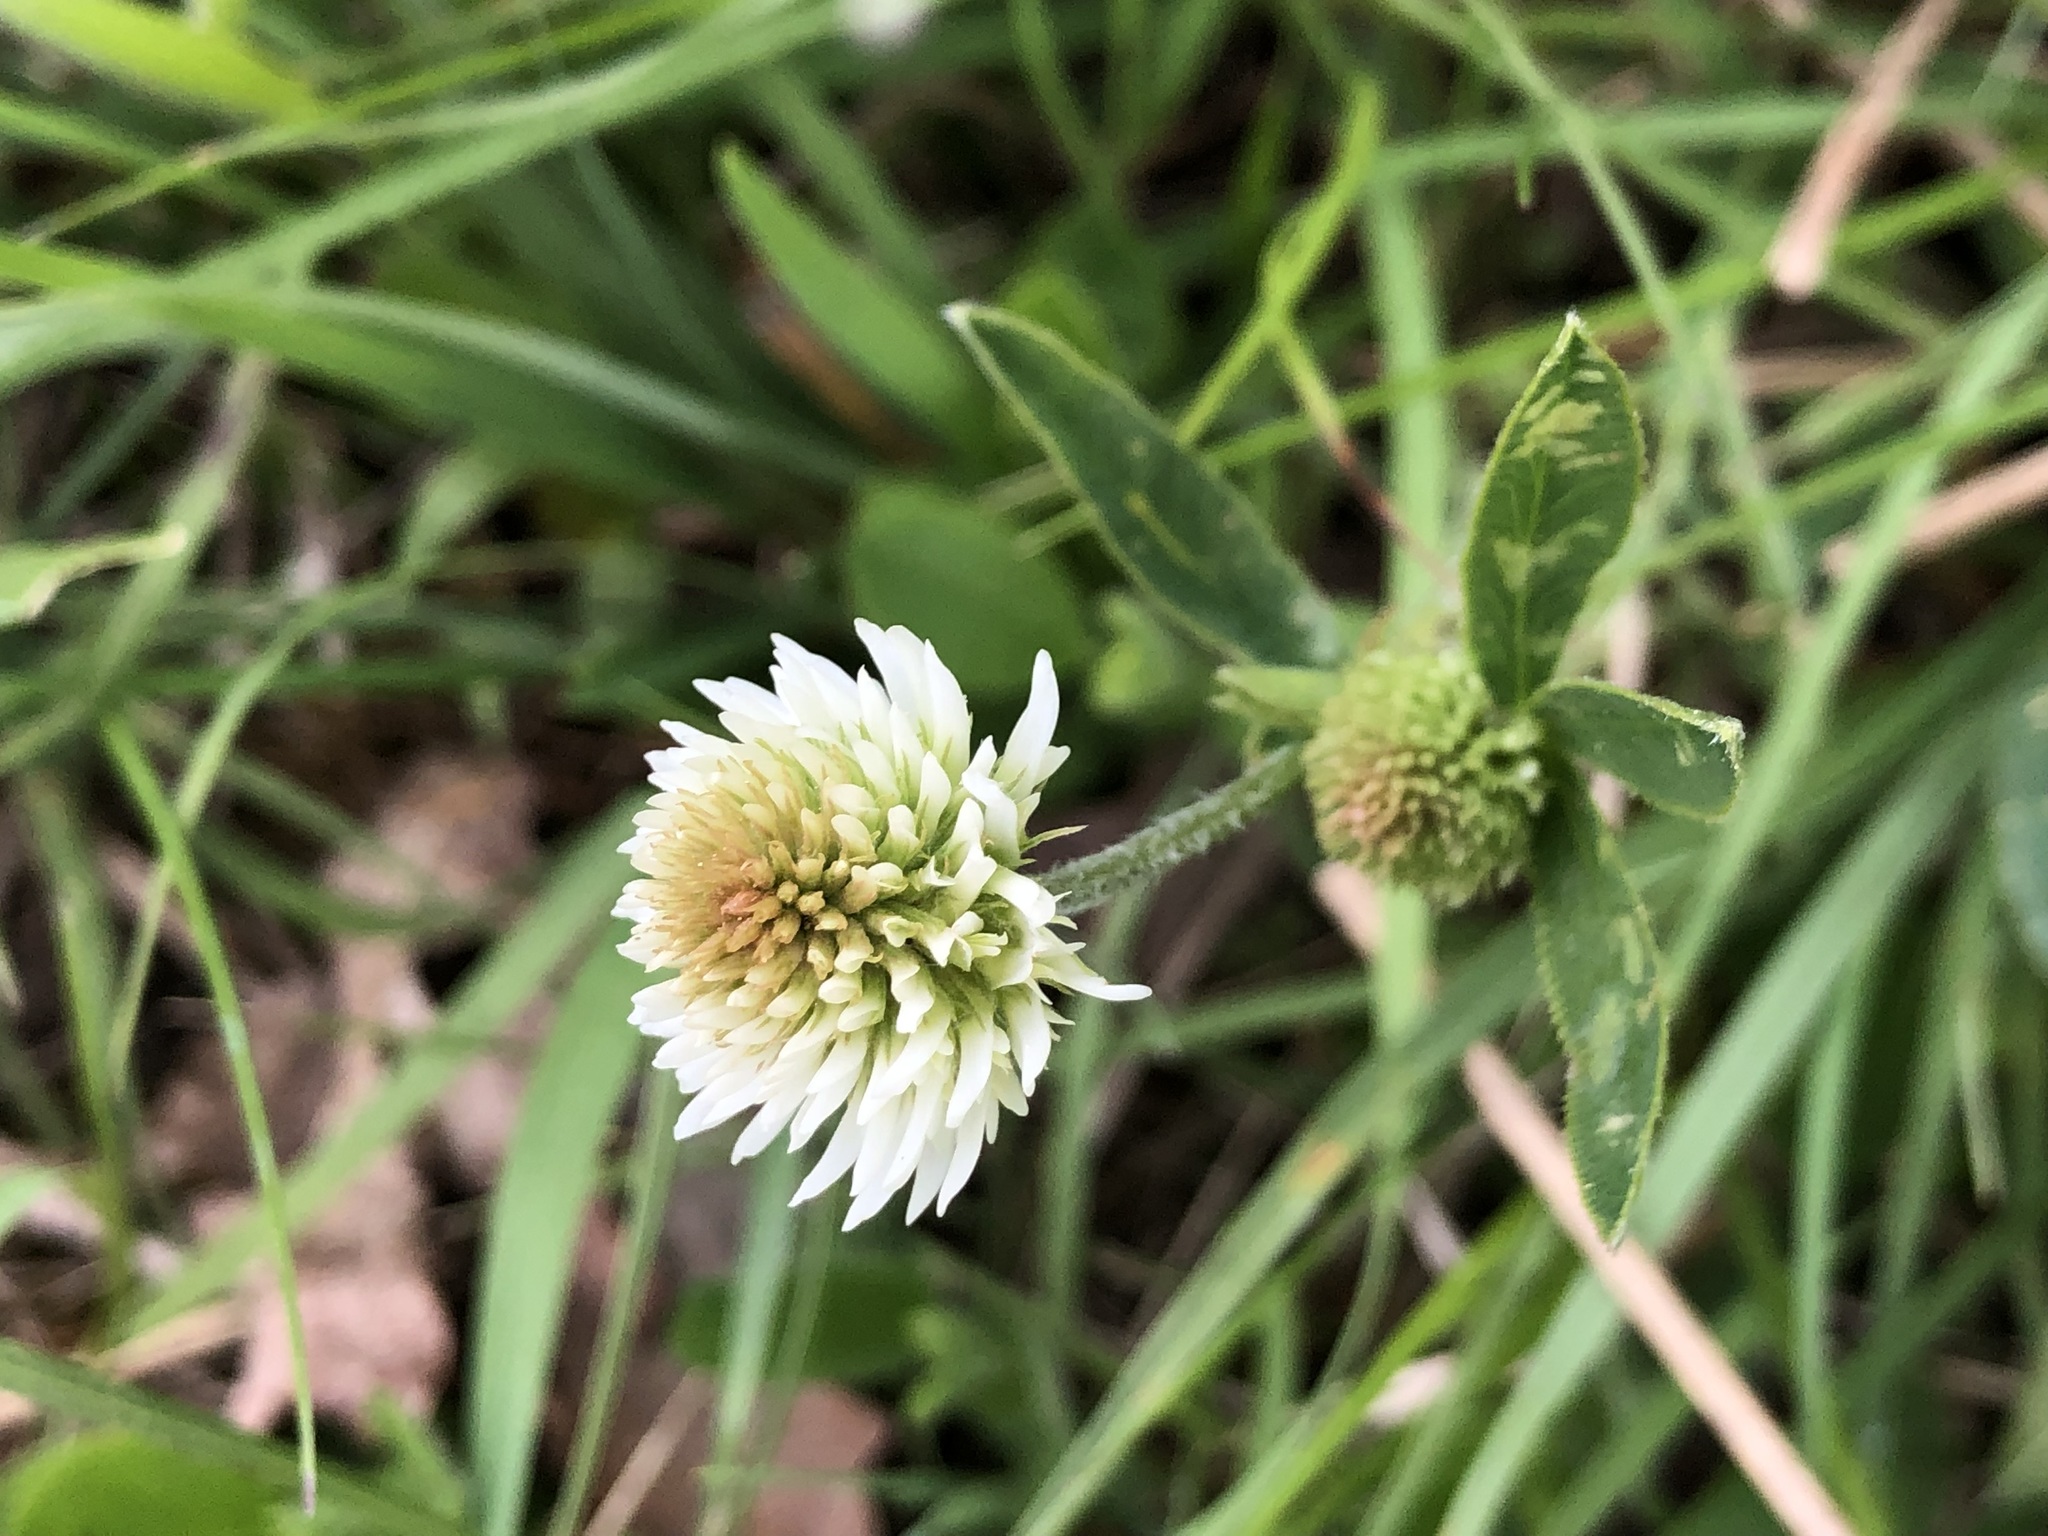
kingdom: Plantae
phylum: Tracheophyta
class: Magnoliopsida
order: Fabales
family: Fabaceae
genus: Trifolium
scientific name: Trifolium montanum
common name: Mountain clover
